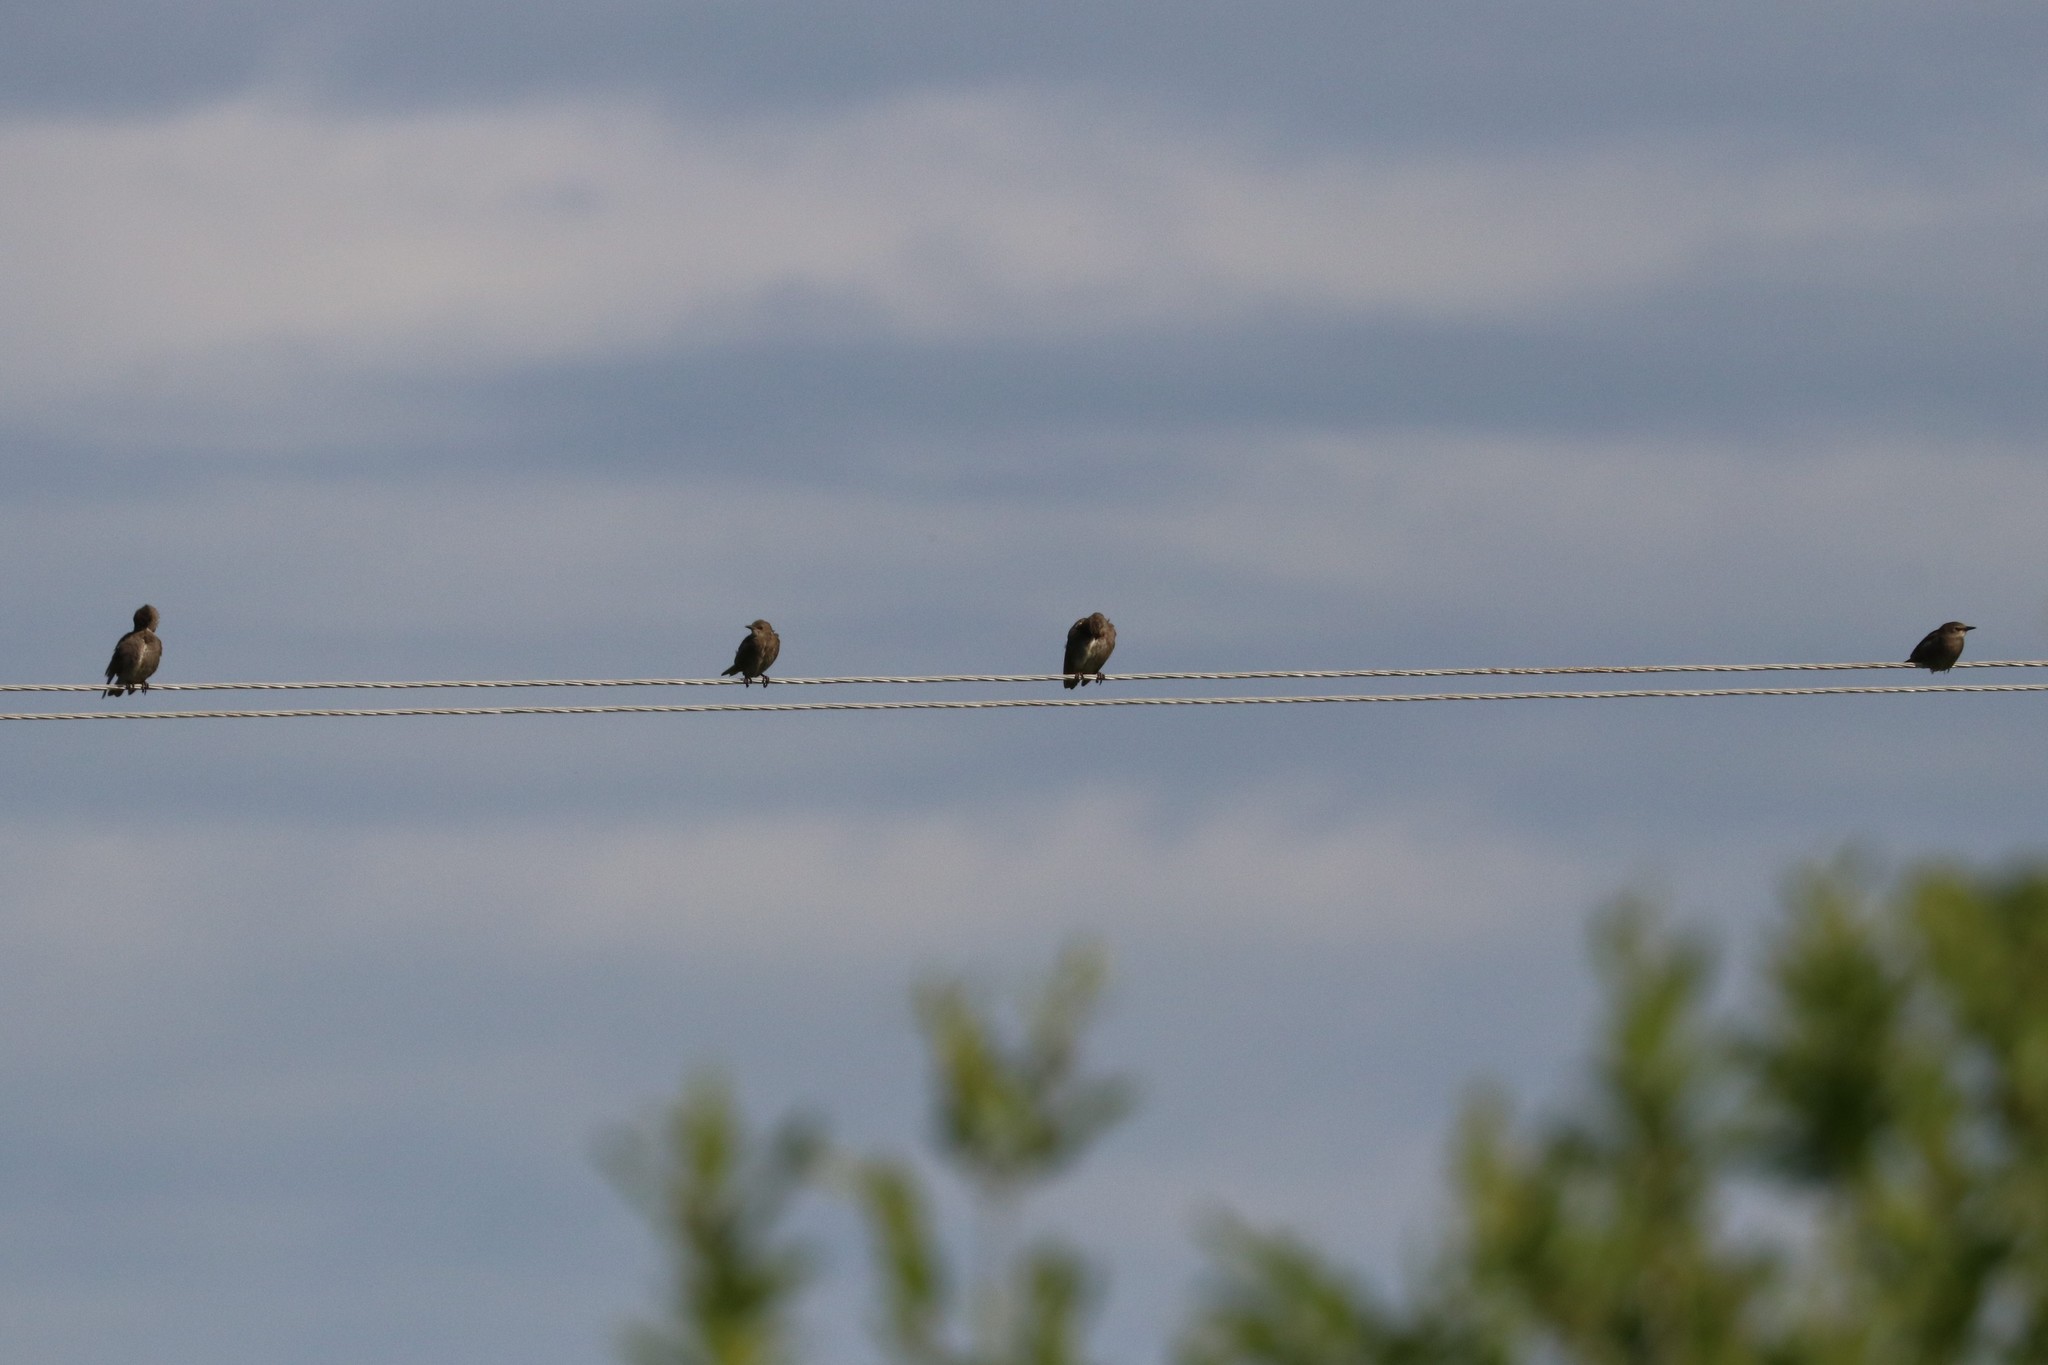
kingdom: Animalia
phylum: Chordata
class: Aves
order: Passeriformes
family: Sturnidae
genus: Sturnus
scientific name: Sturnus vulgaris
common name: Common starling
